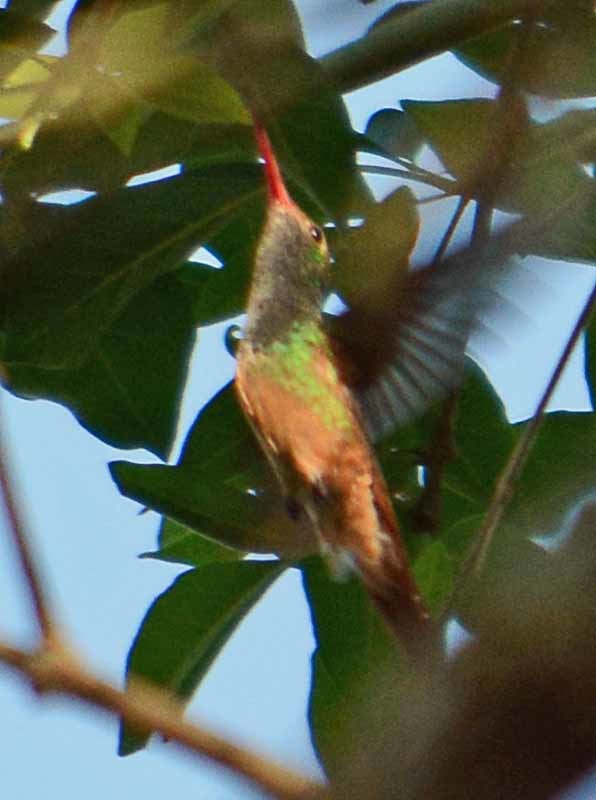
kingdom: Animalia
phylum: Chordata
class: Aves
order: Apodiformes
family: Trochilidae
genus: Amazilia
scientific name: Amazilia yucatanensis
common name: Buff-bellied hummingbird
